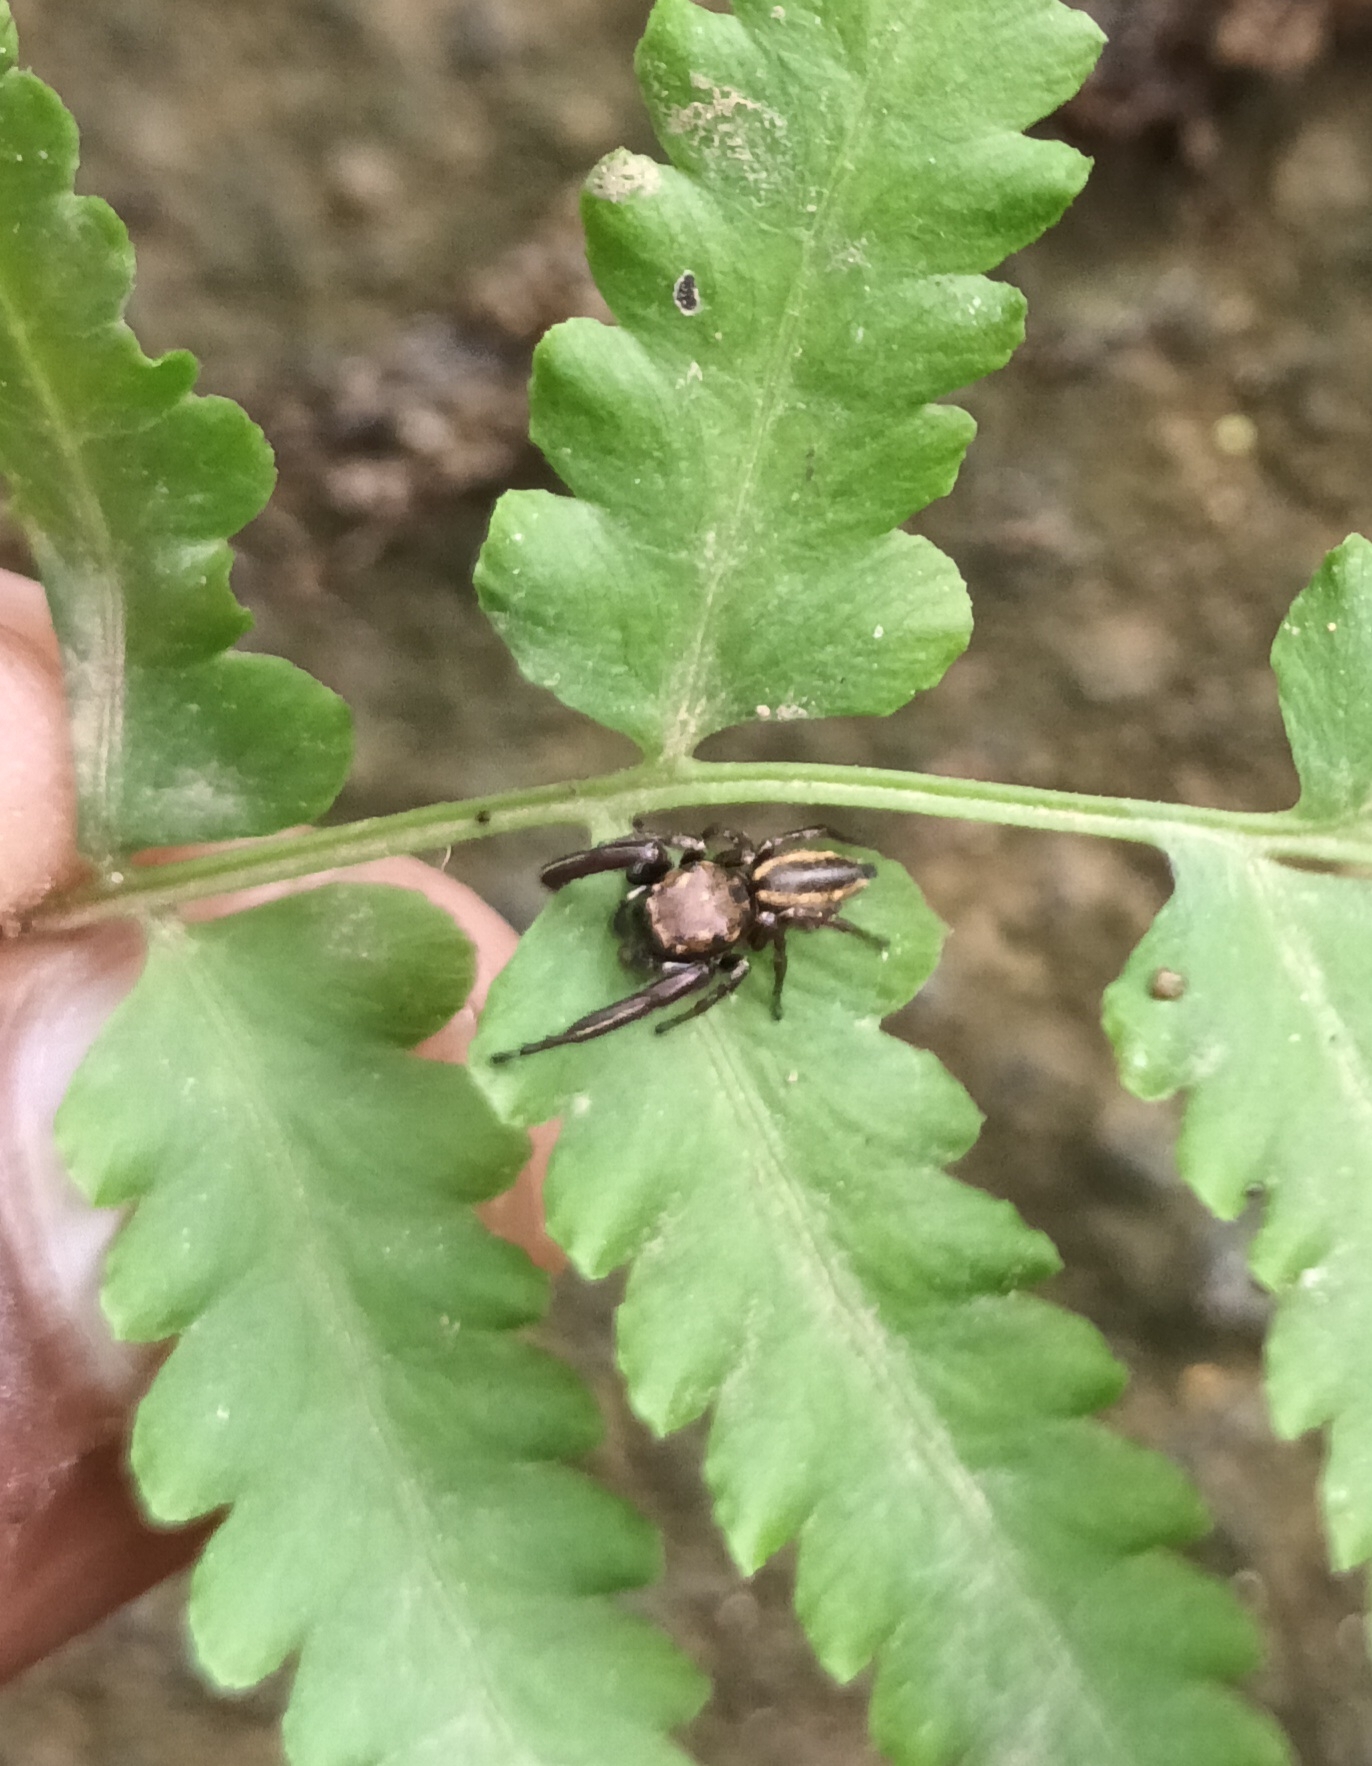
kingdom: Animalia
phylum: Arthropoda
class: Arachnida
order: Araneae
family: Salticidae
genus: Bianor
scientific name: Bianor angulosus
